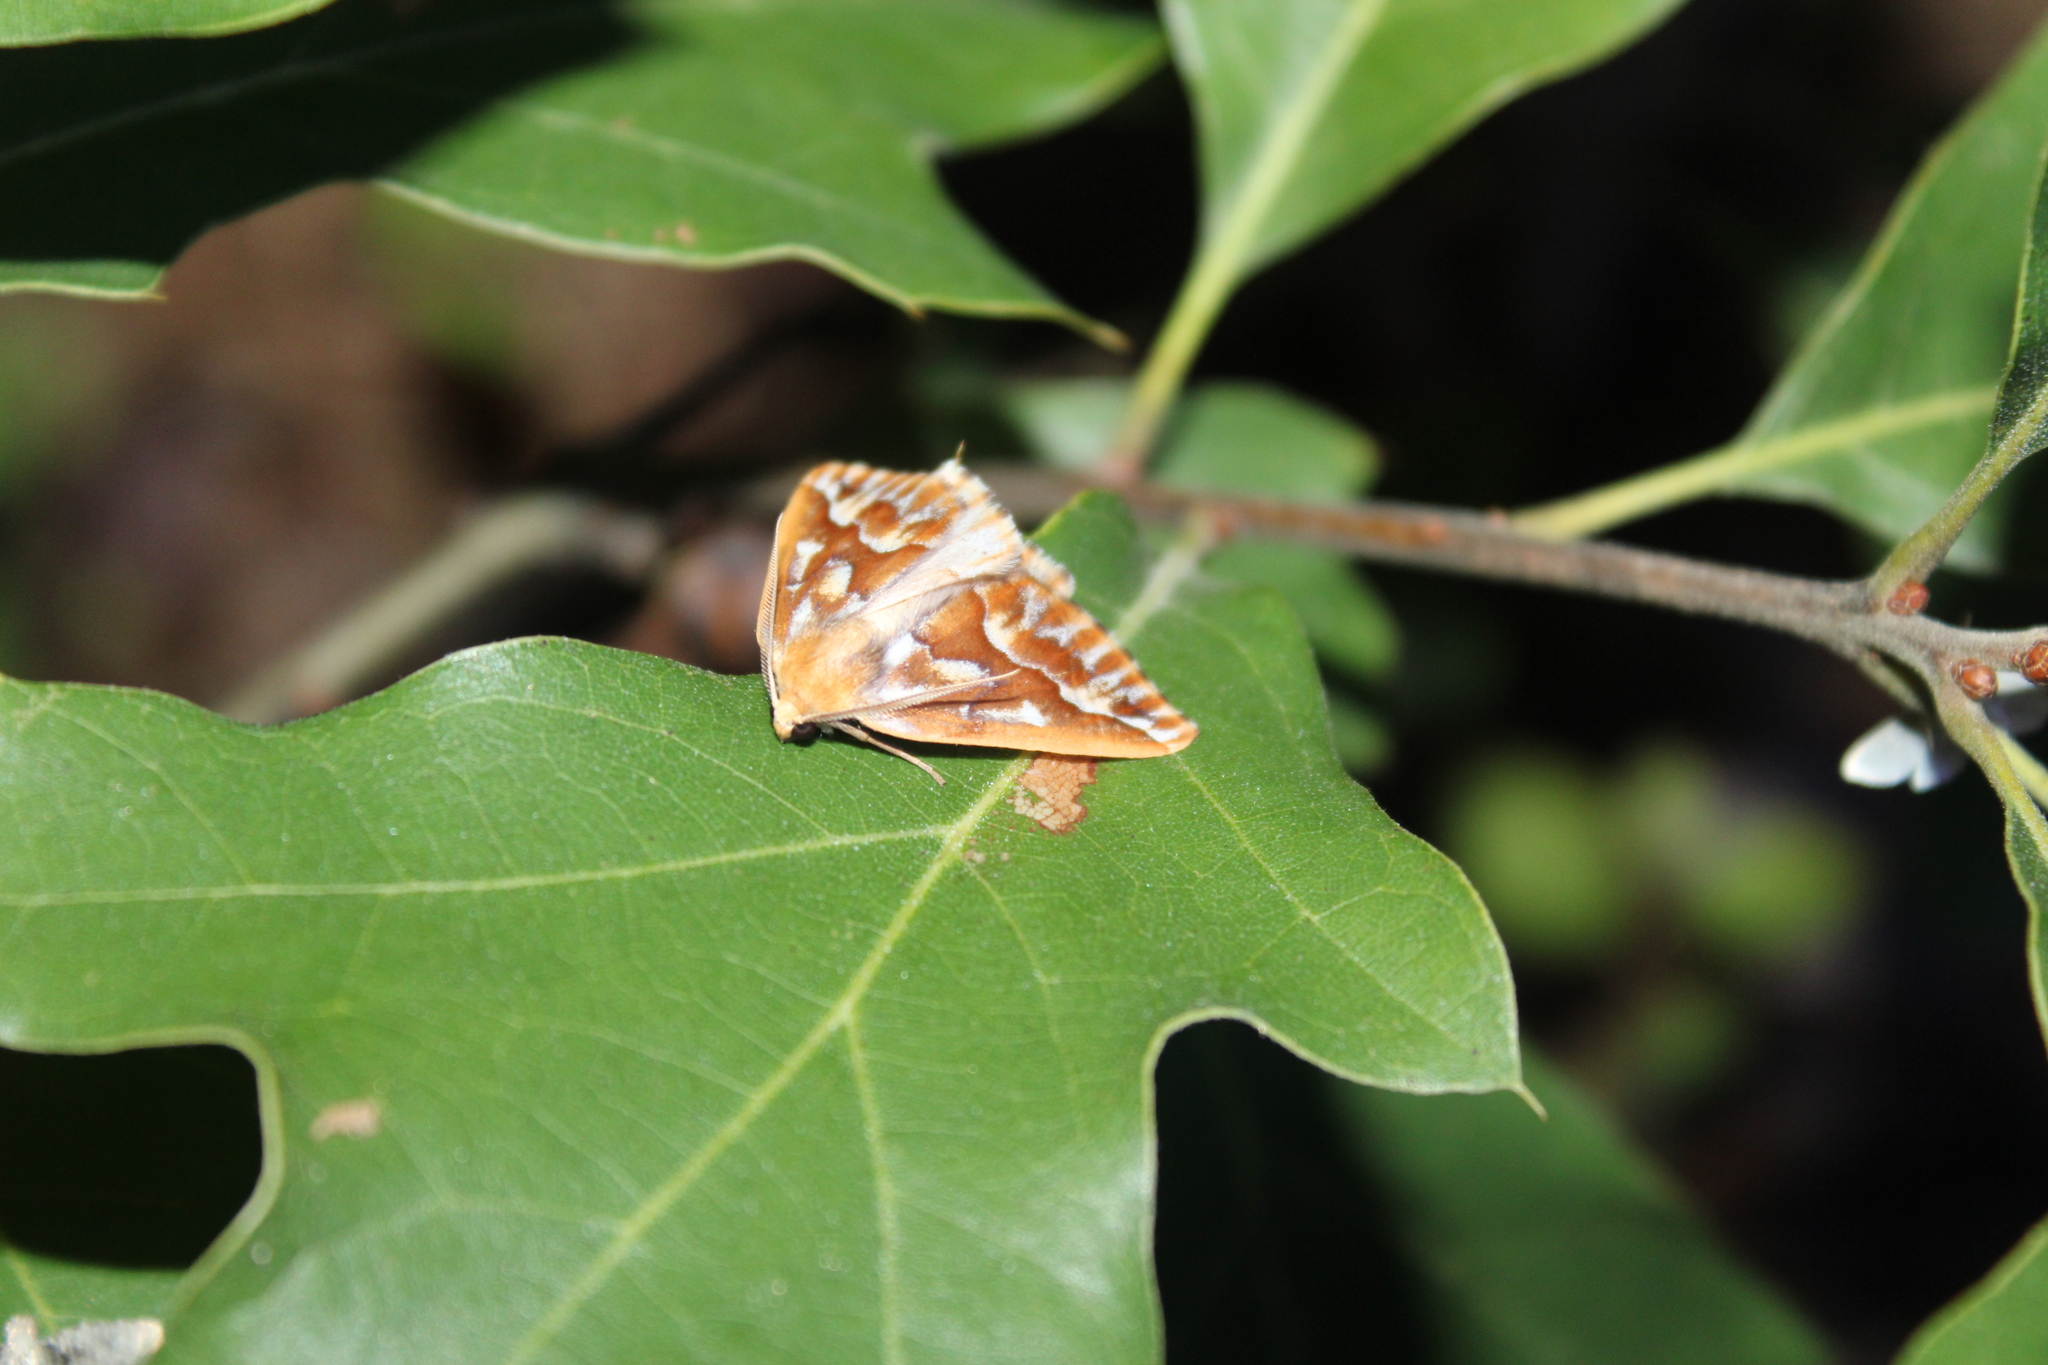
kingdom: Animalia
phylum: Arthropoda
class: Insecta
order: Lepidoptera
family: Geometridae
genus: Caripeta
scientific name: Caripeta piniata
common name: Northern pine looper moth
